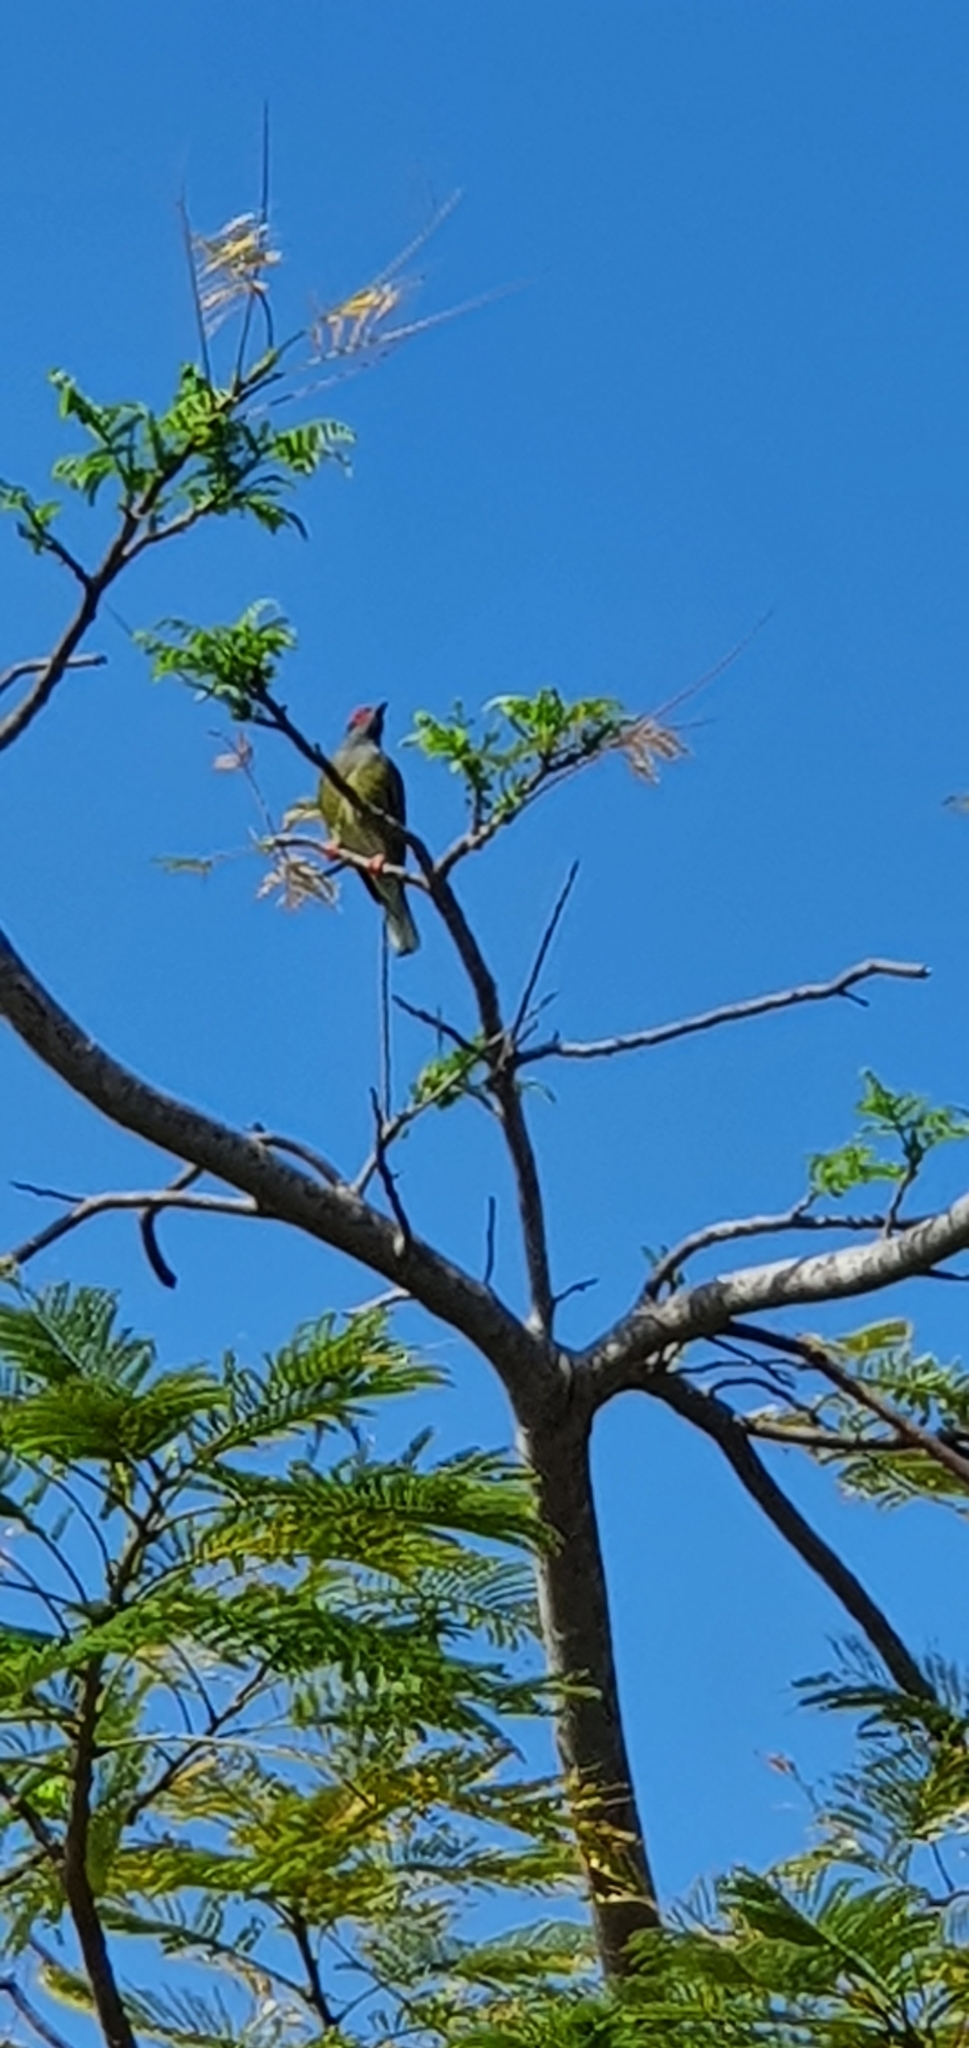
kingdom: Animalia
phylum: Chordata
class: Aves
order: Passeriformes
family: Oriolidae
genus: Sphecotheres
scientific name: Sphecotheres vieilloti
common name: Australasian figbird
